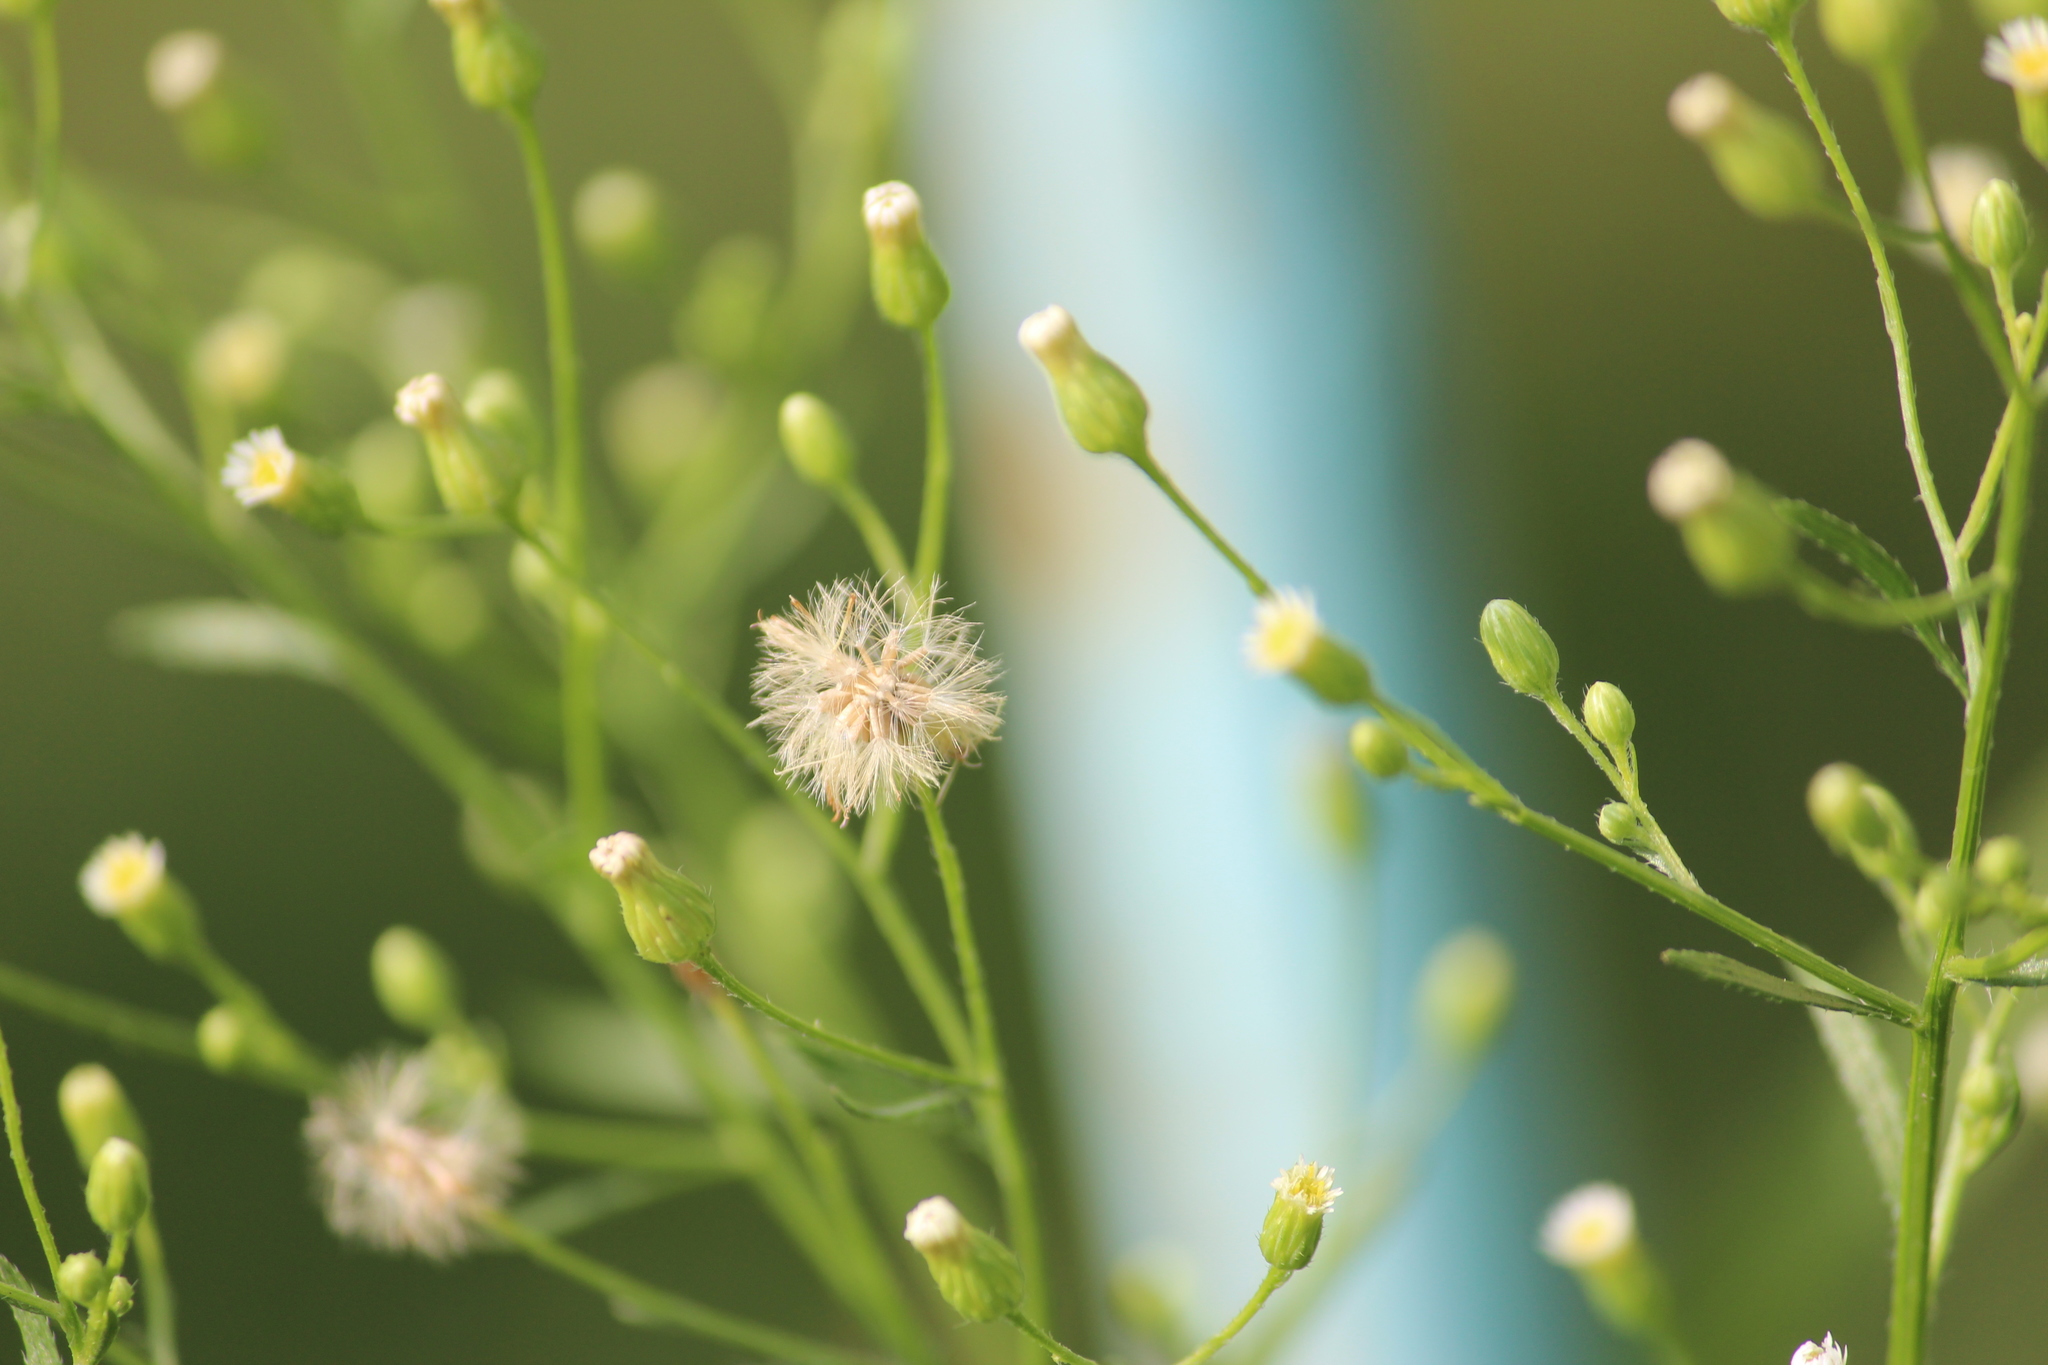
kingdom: Plantae
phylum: Tracheophyta
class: Magnoliopsida
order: Asterales
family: Asteraceae
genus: Erigeron
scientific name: Erigeron canadensis
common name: Canadian fleabane
